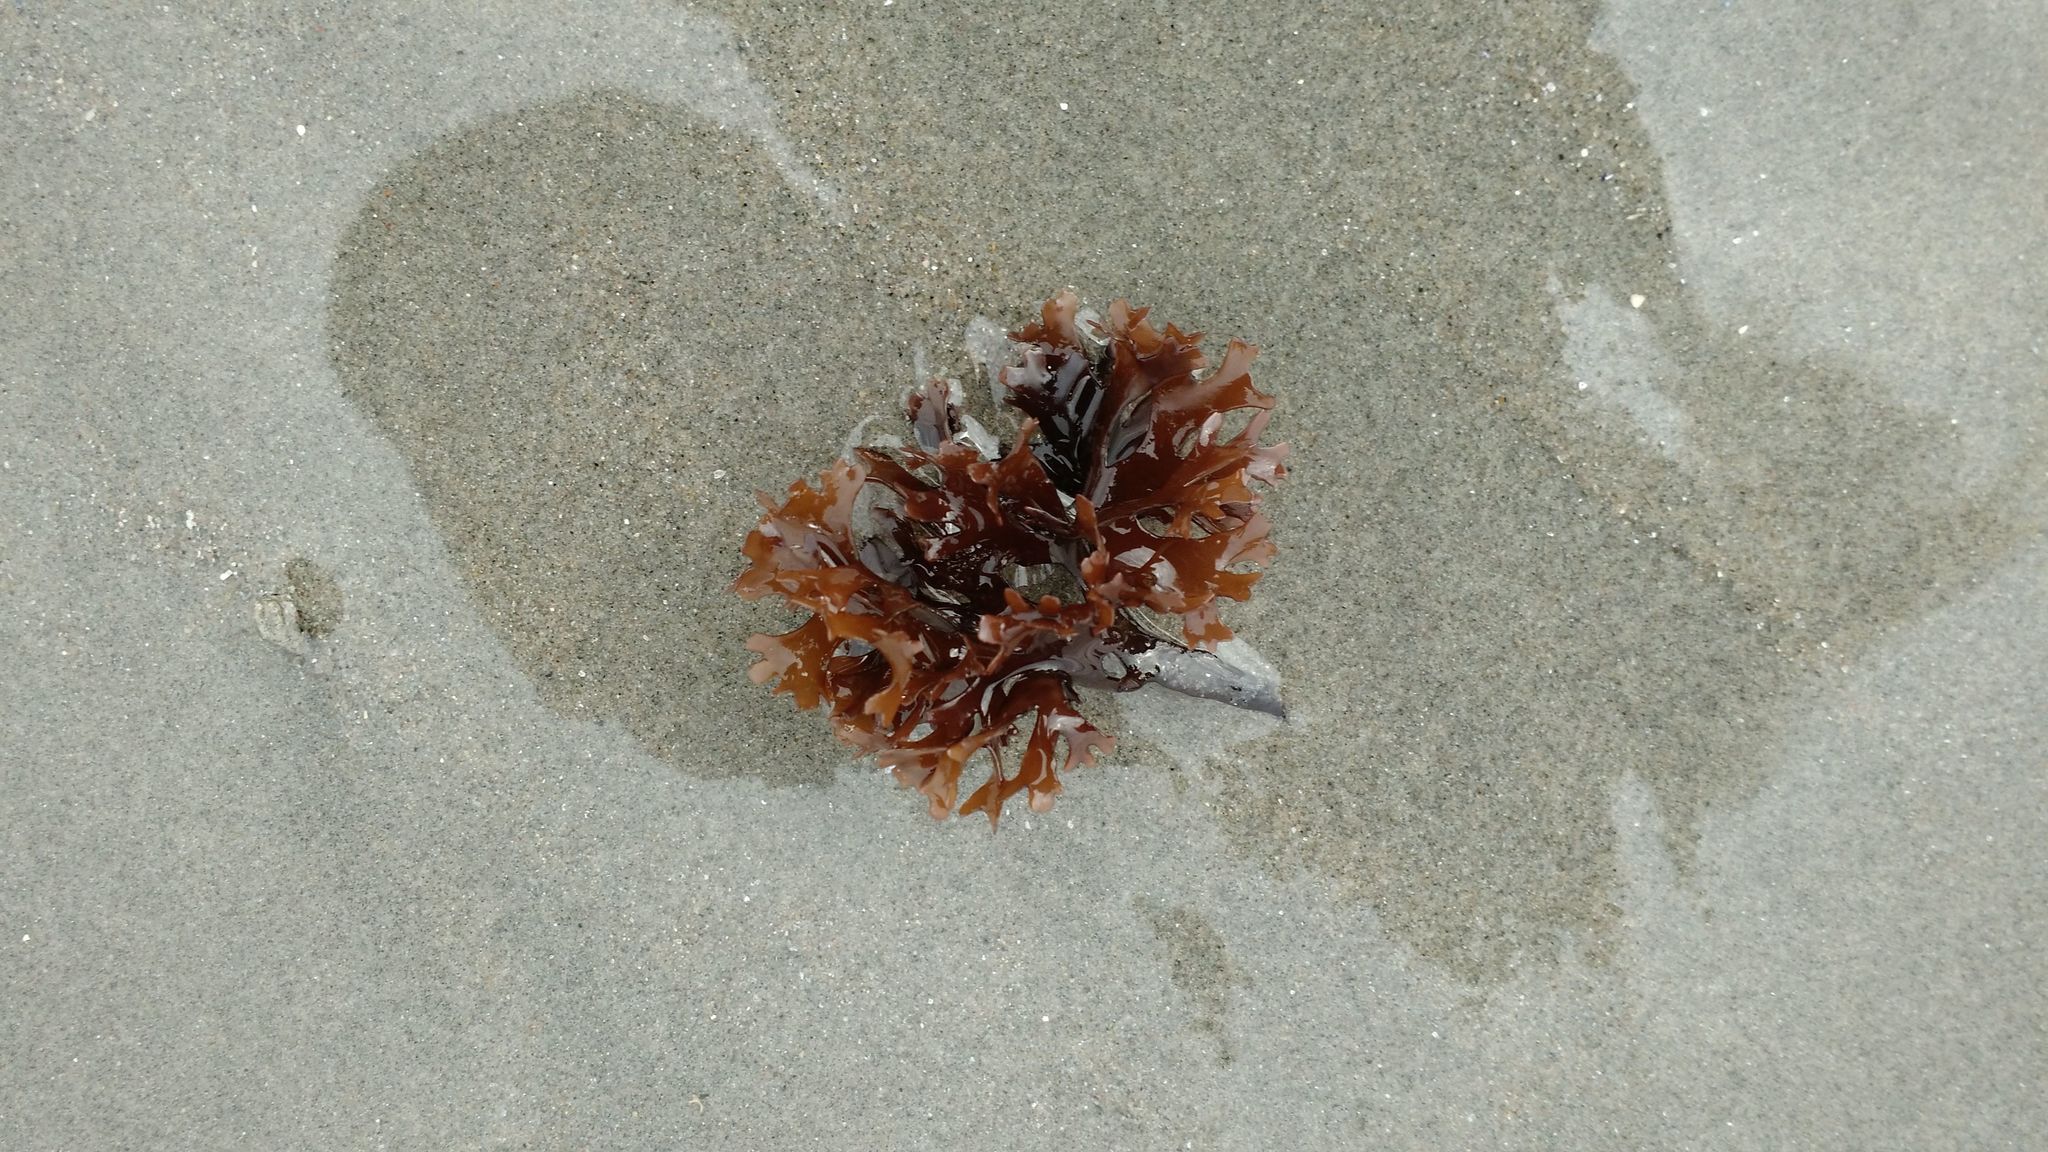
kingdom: Plantae
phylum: Rhodophyta
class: Florideophyceae
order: Gigartinales
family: Gigartinaceae
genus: Chondrus
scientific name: Chondrus crispus
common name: Carrageen
